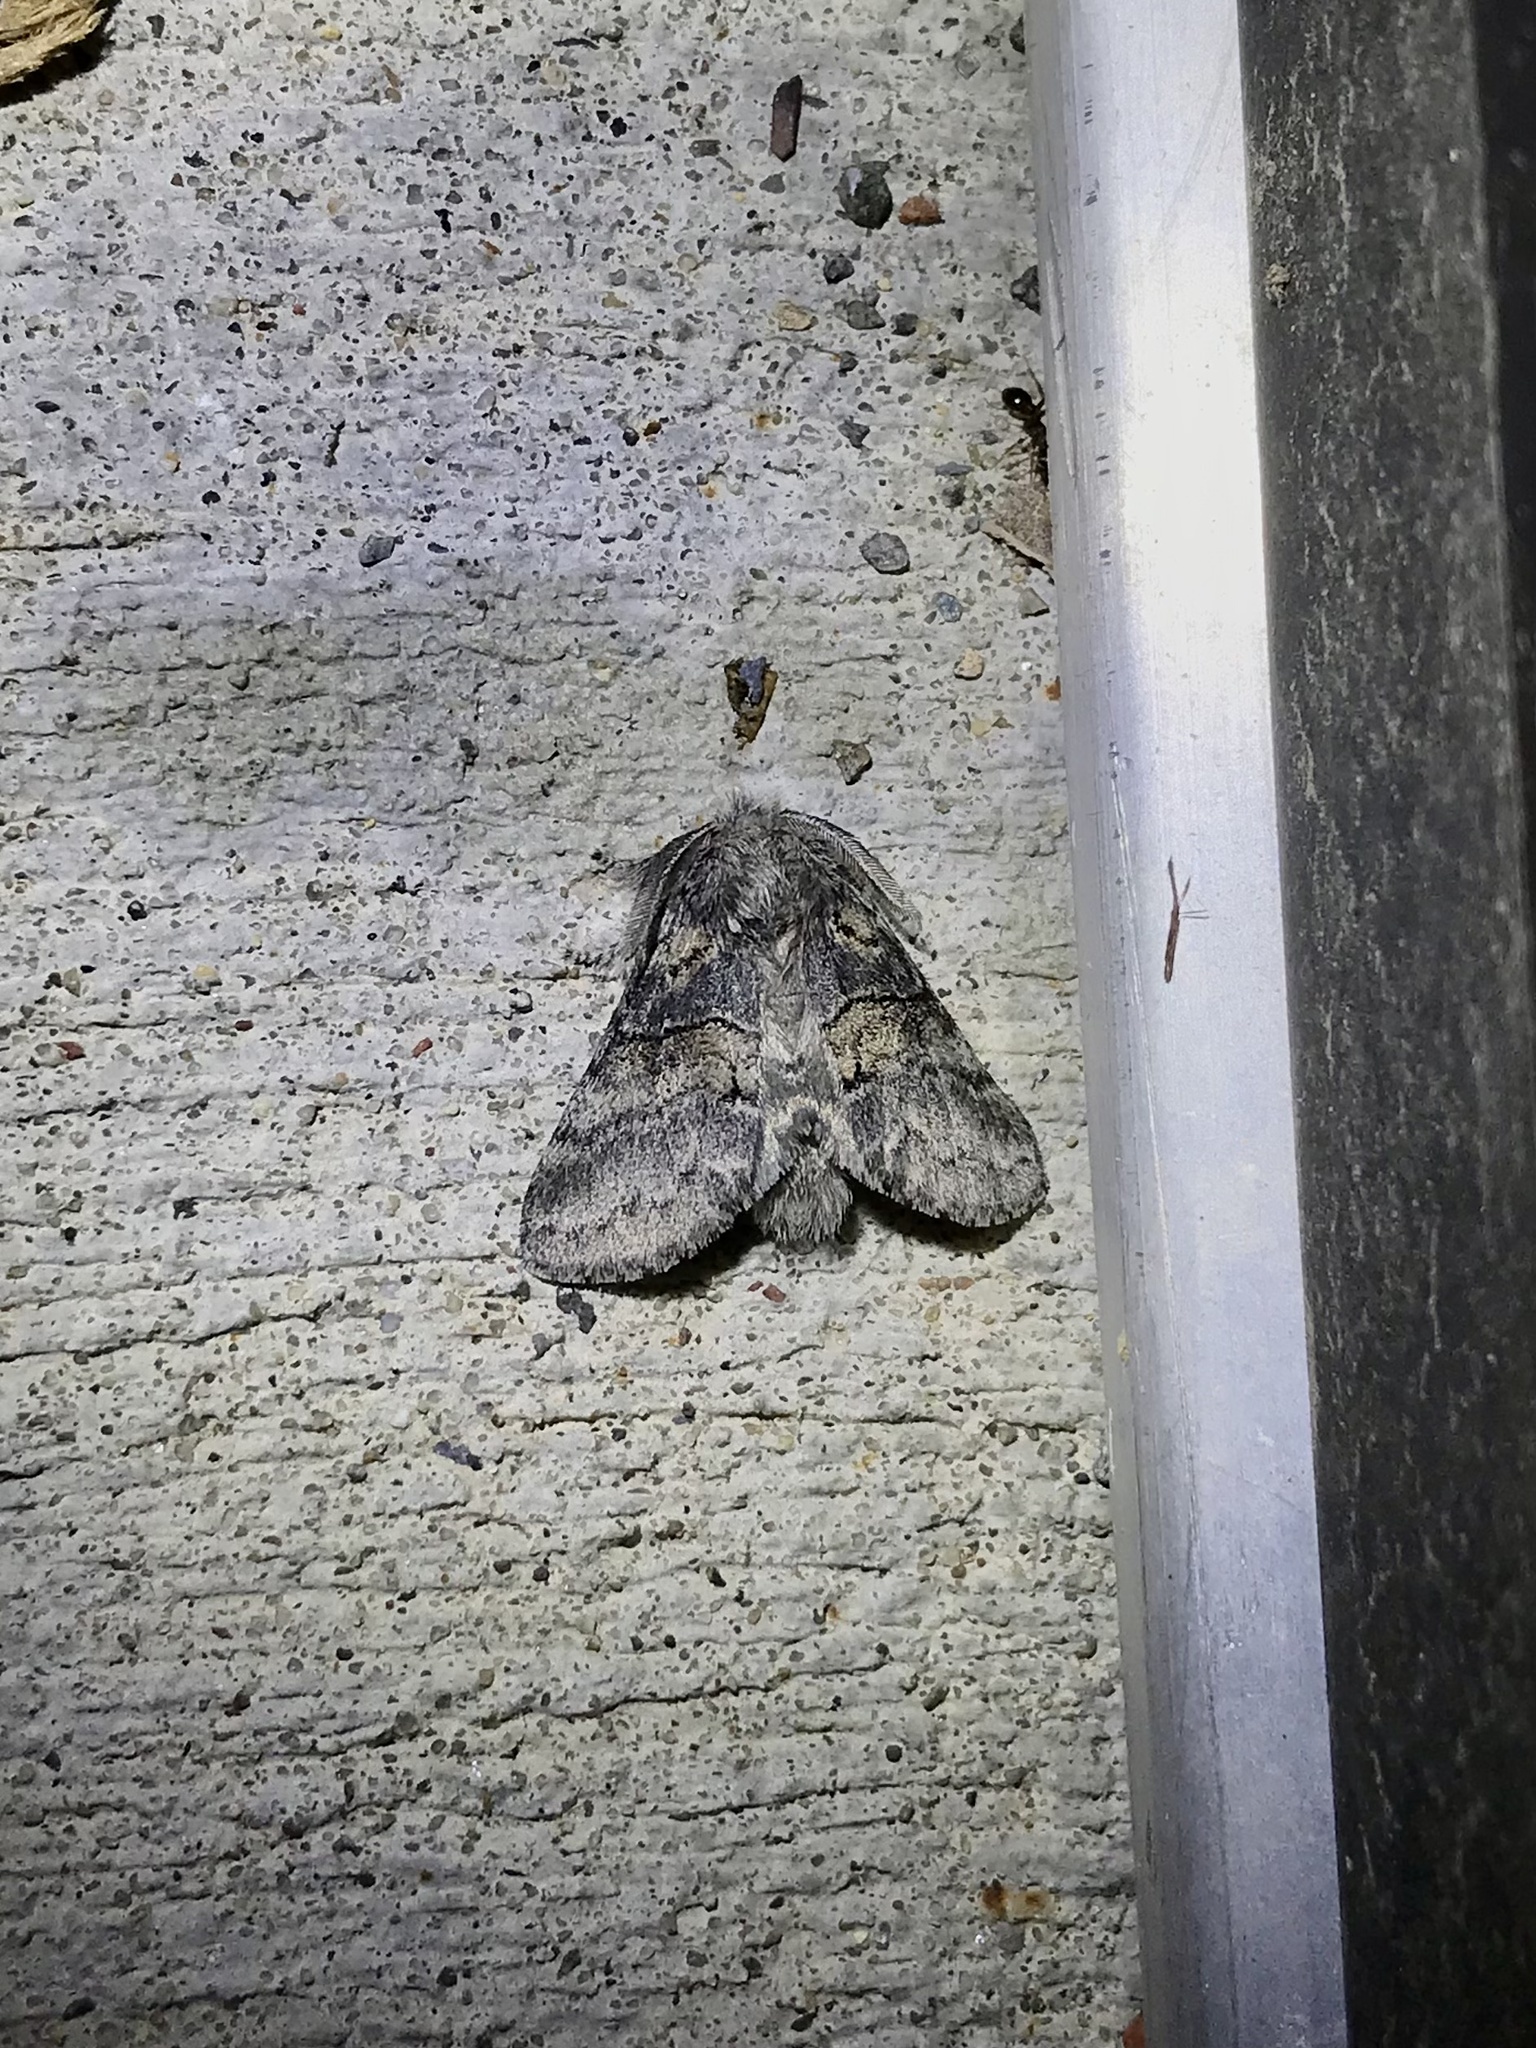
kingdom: Animalia
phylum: Arthropoda
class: Insecta
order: Lepidoptera
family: Notodontidae
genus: Gluphisia
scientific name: Gluphisia septentrionis
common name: Common gluphisia
